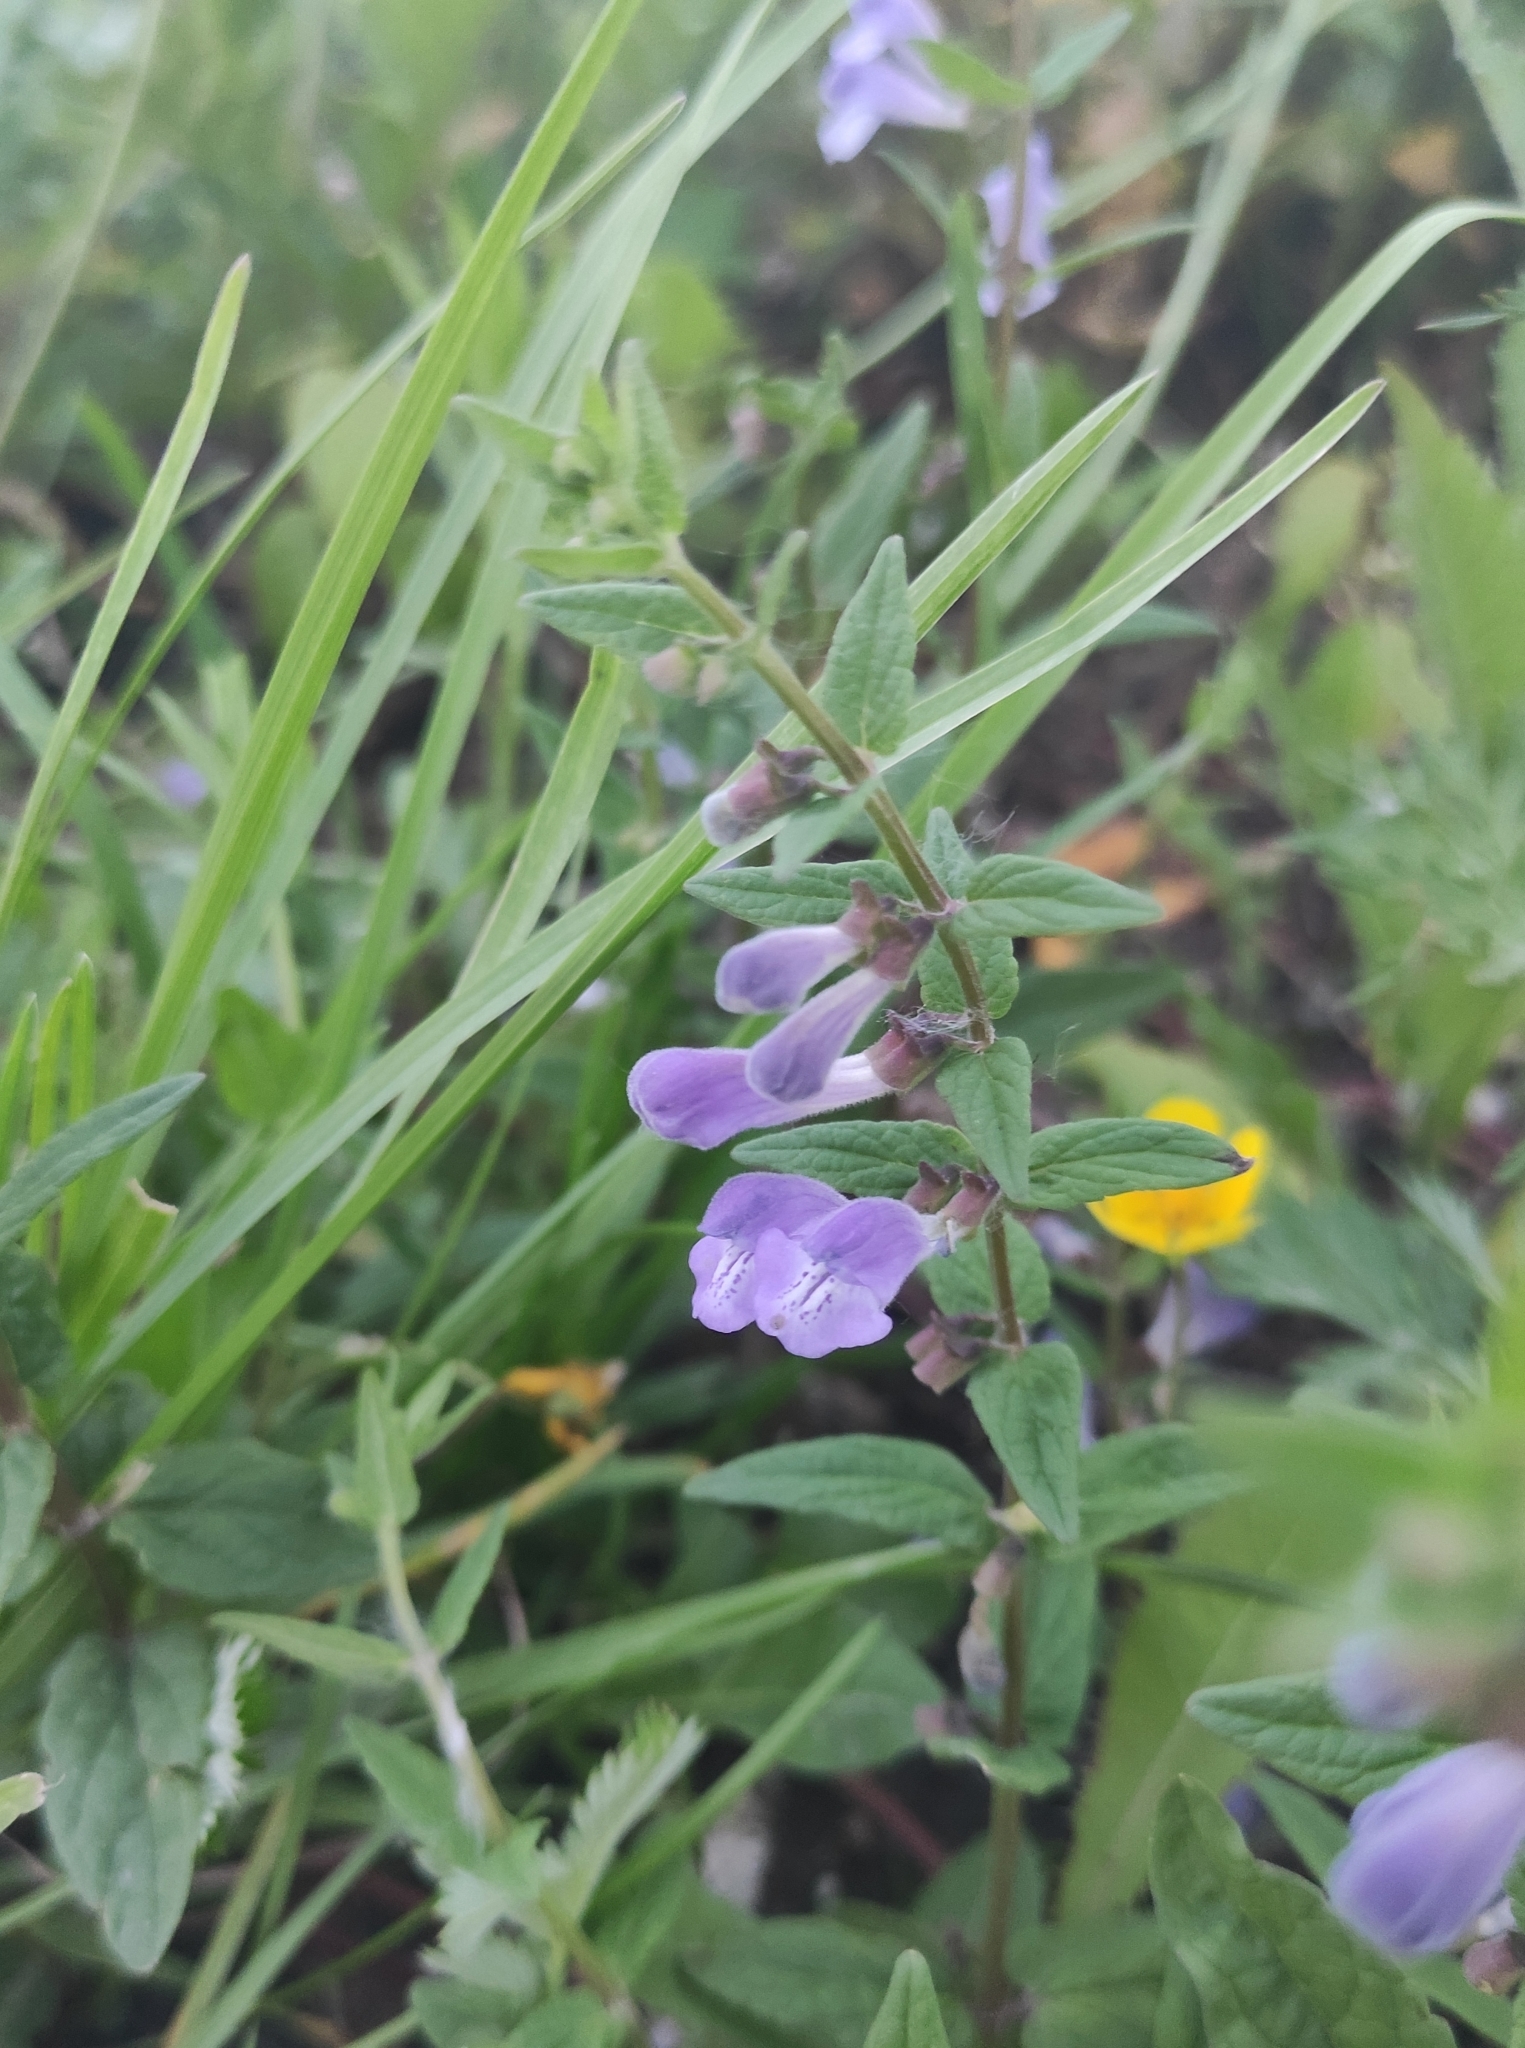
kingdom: Plantae
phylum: Tracheophyta
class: Magnoliopsida
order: Lamiales
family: Lamiaceae
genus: Scutellaria
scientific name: Scutellaria galericulata
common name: Skullcap
